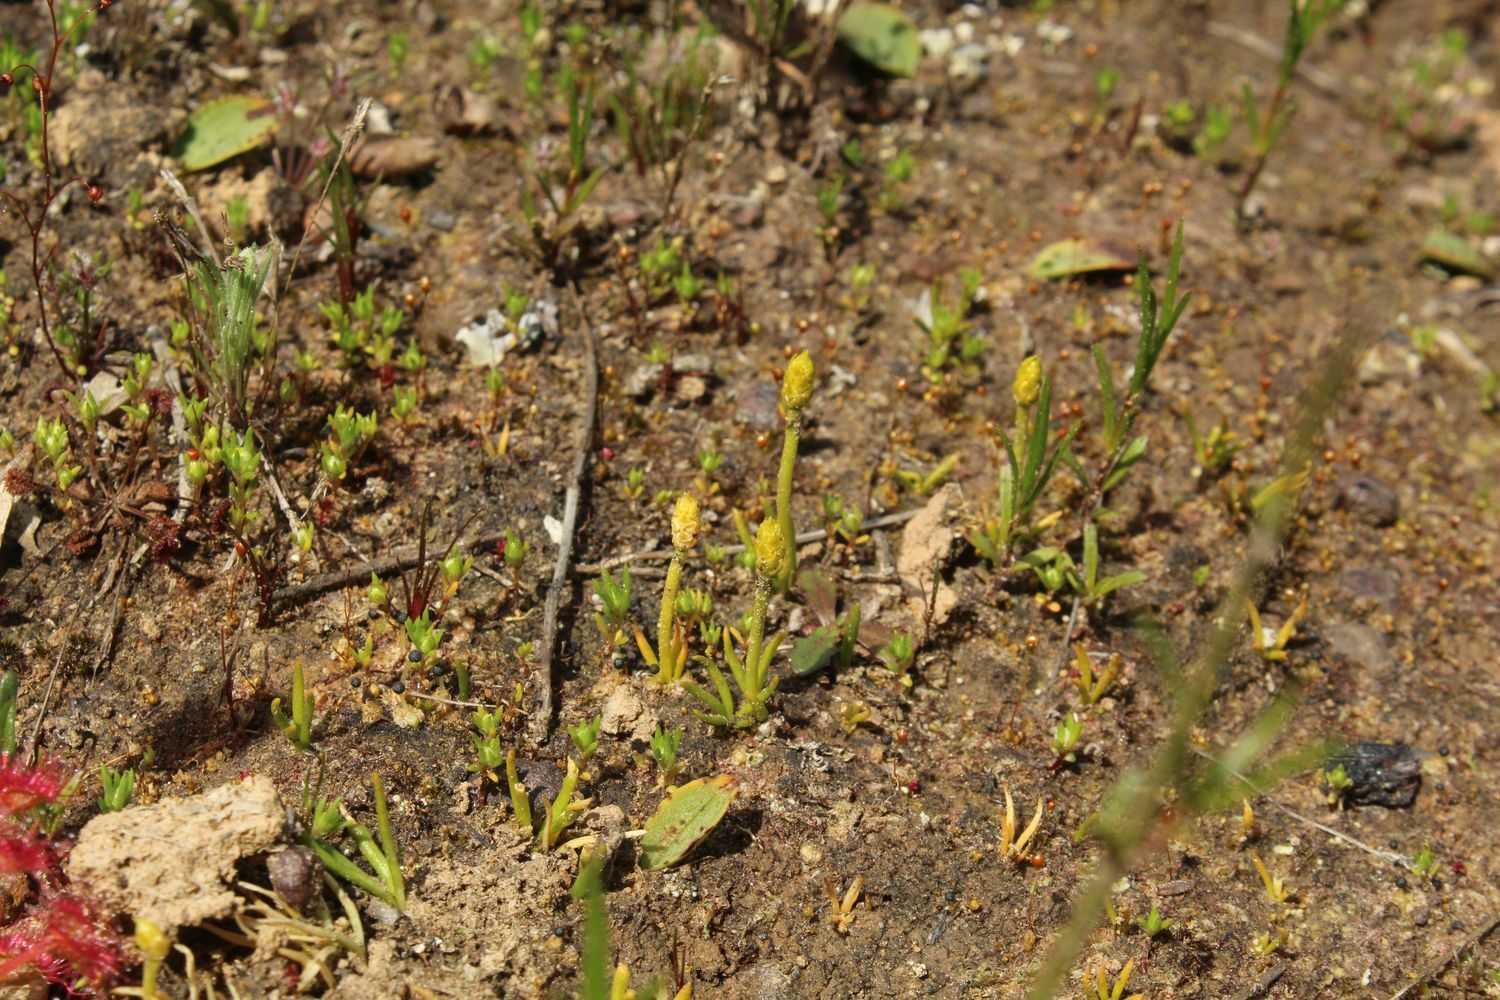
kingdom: Plantae
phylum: Tracheophyta
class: Lycopodiopsida
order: Lycopodiales
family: Lycopodiaceae
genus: Phylloglossum
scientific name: Phylloglossum drummondii
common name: Pigmy-club-moss
